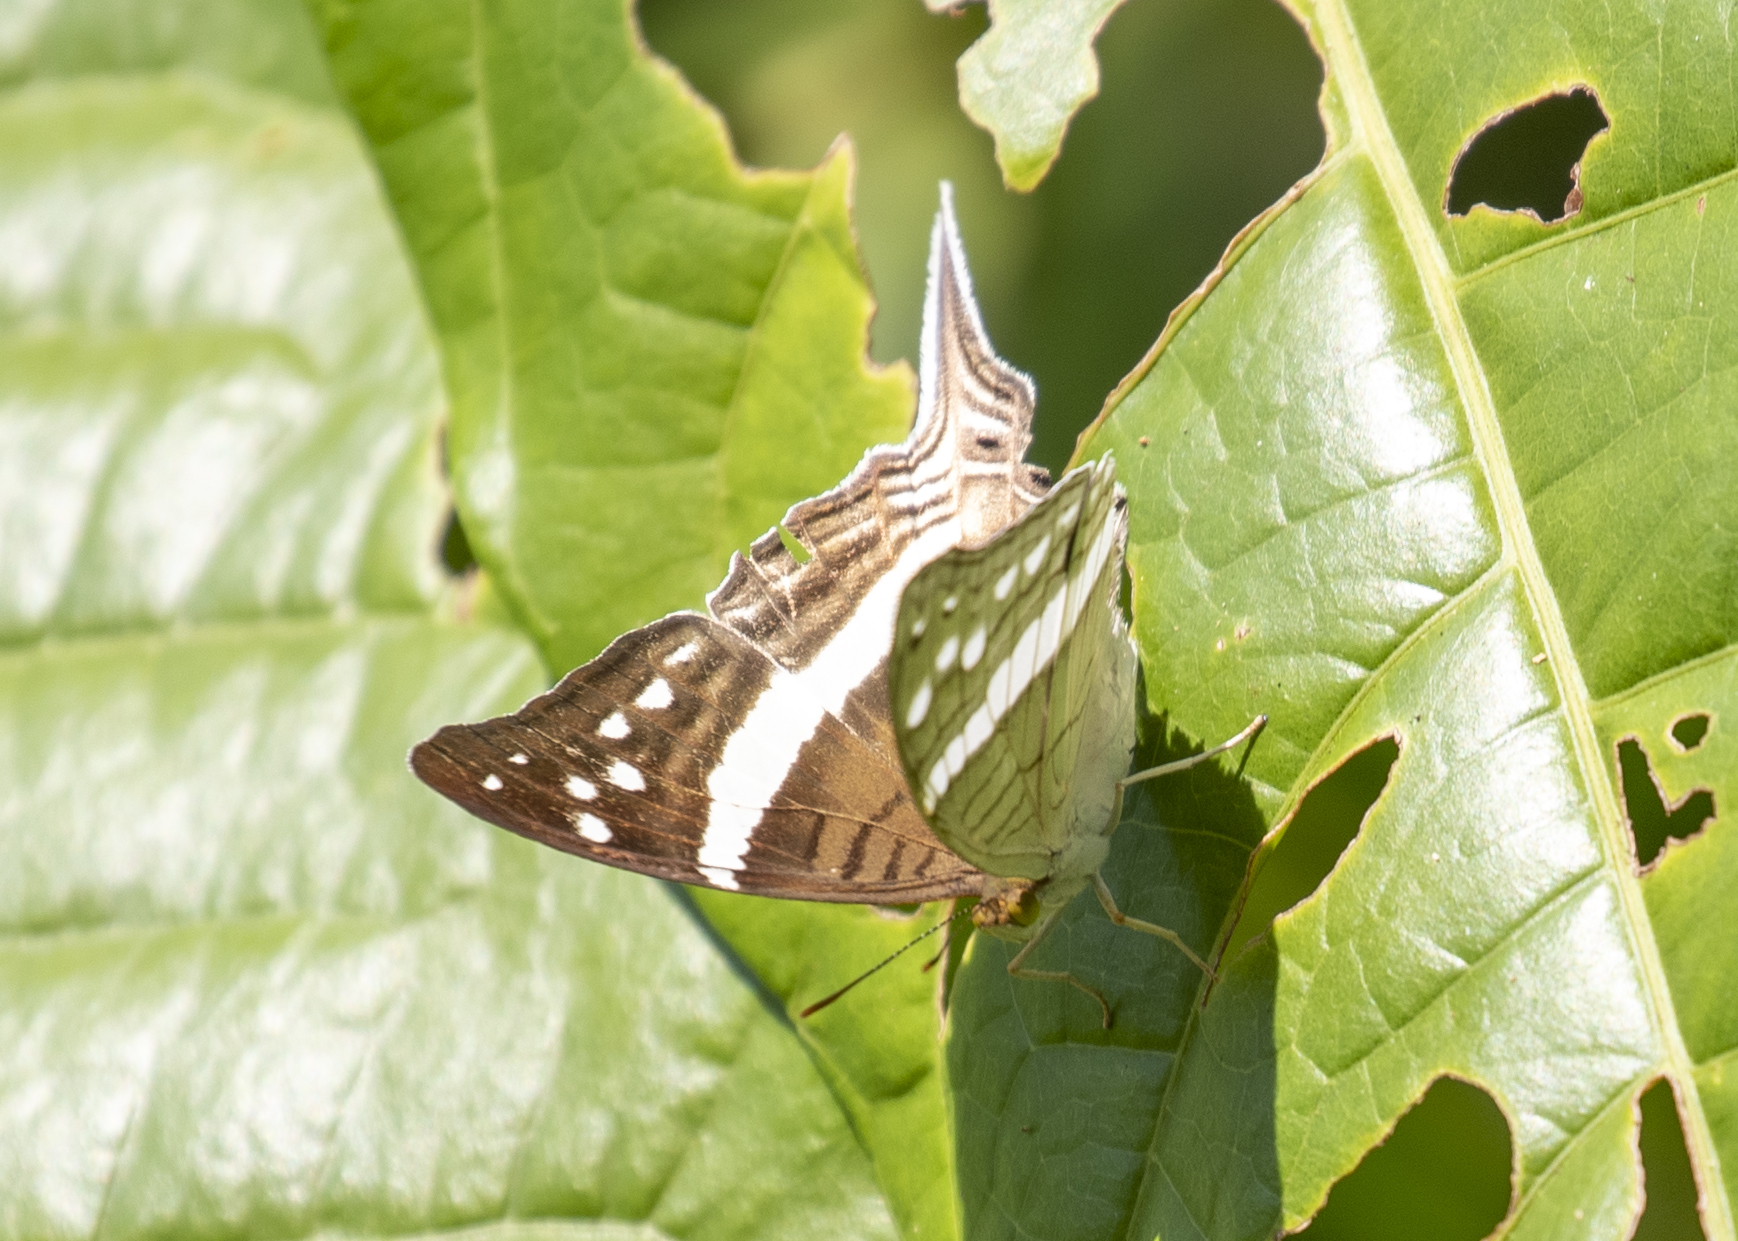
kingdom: Animalia
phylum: Arthropoda
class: Insecta
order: Lepidoptera
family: Nymphalidae
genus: Marpesia
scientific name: Marpesia crethon
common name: Crethon daggerwing
